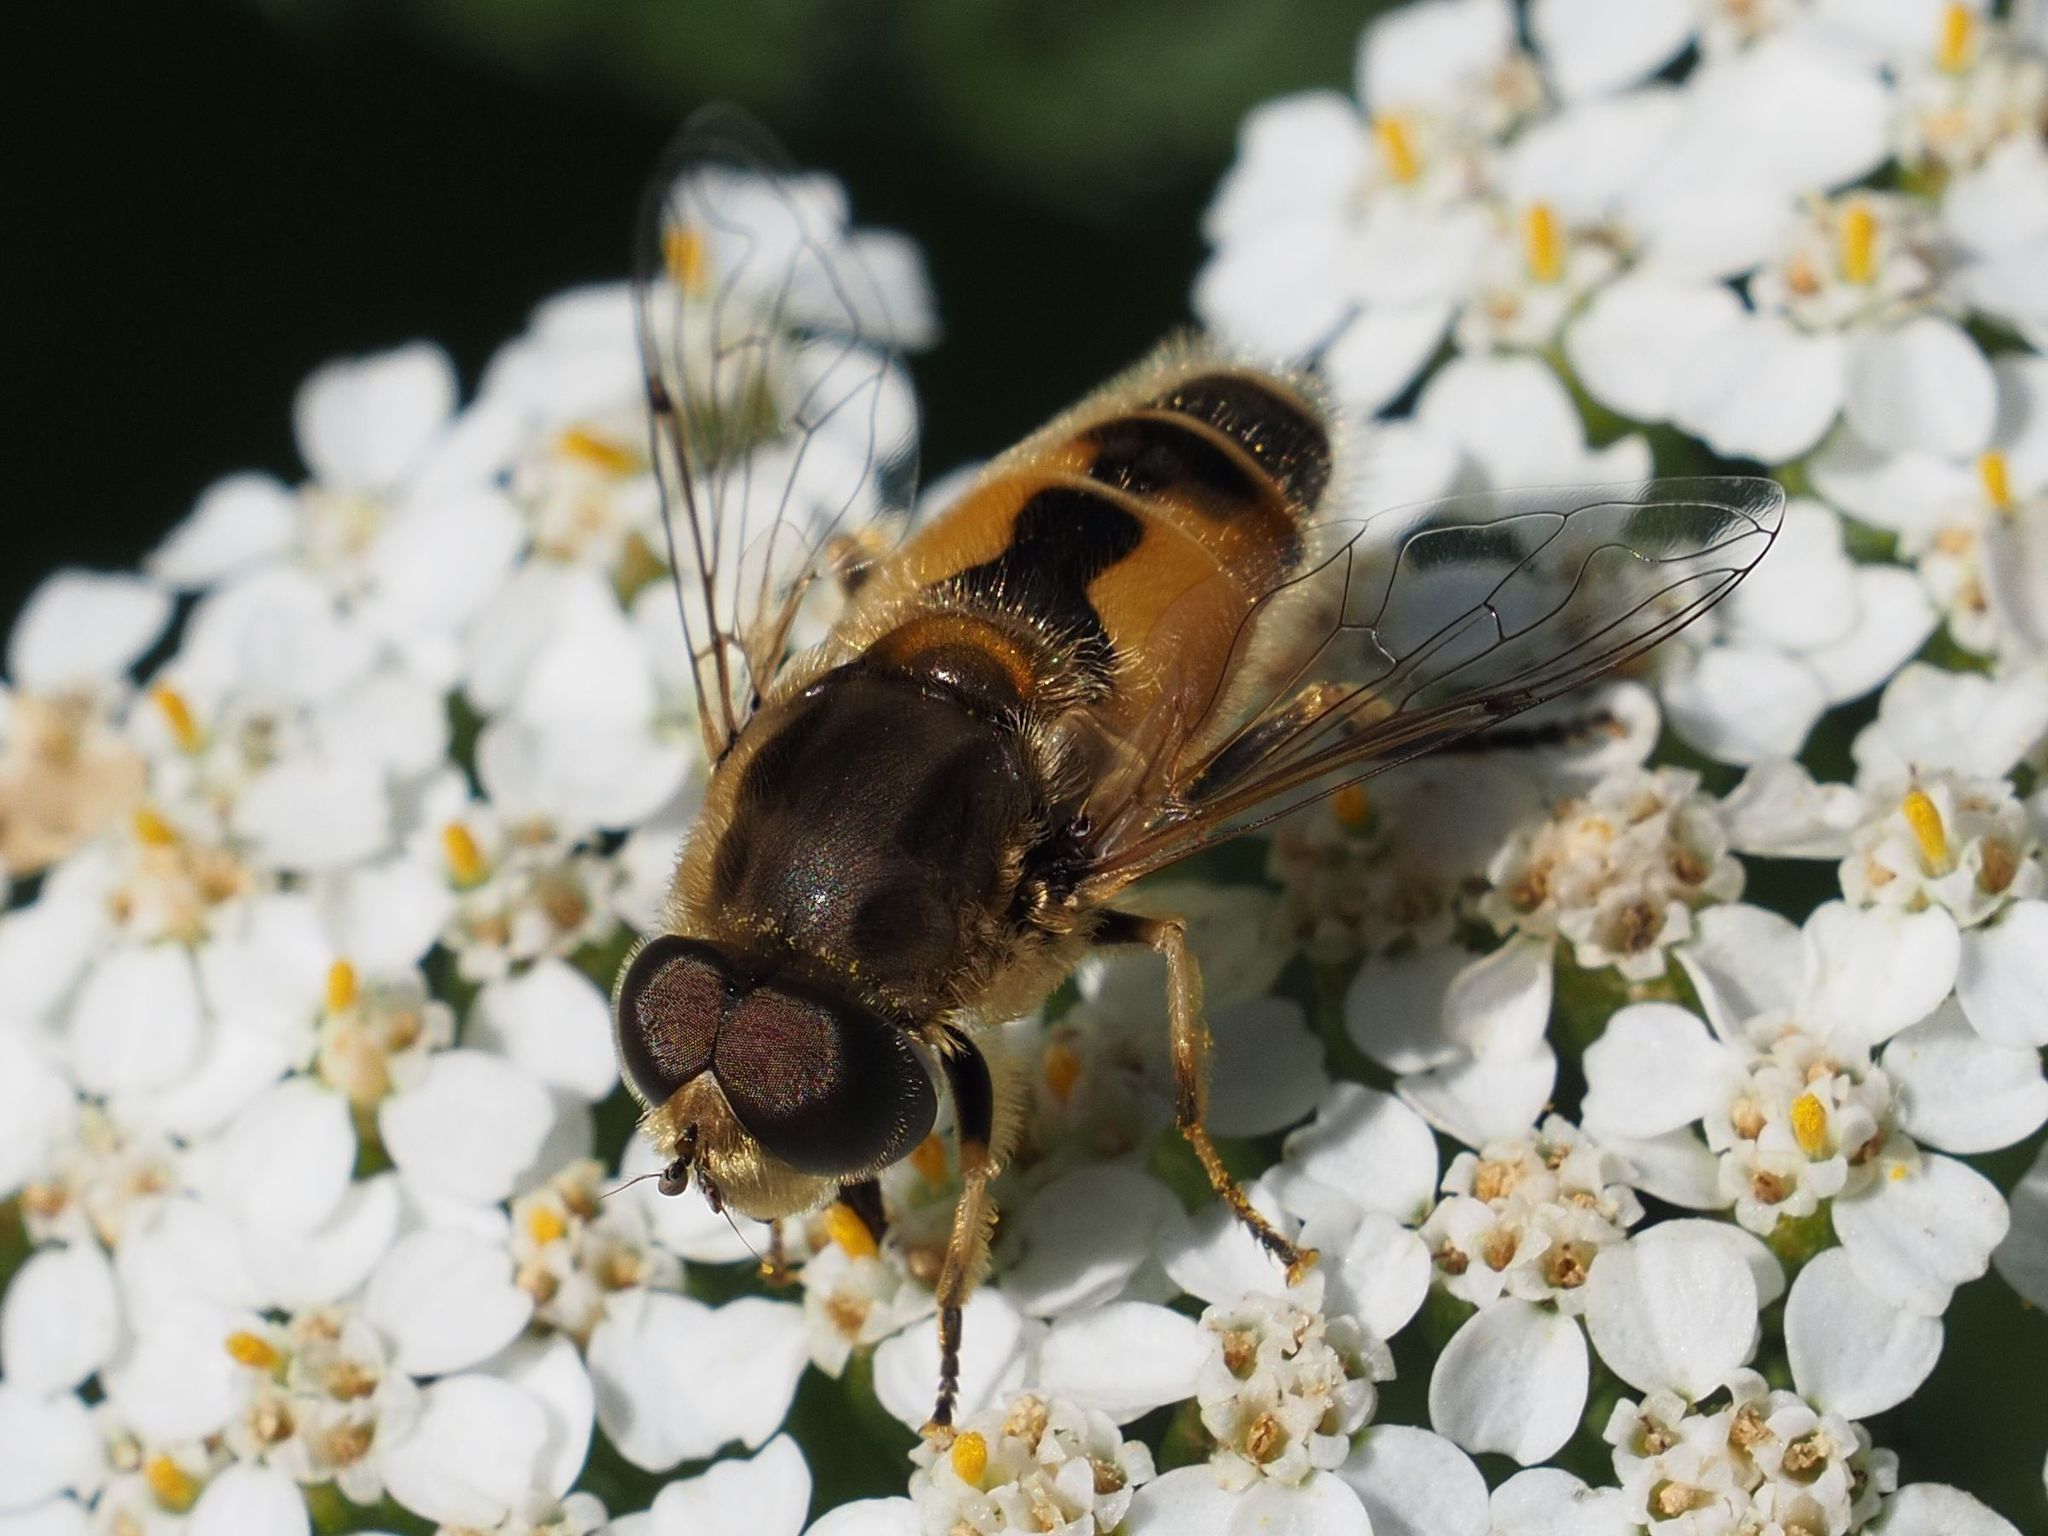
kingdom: Animalia
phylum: Arthropoda
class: Insecta
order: Diptera
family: Syrphidae
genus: Eristalis
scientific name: Eristalis arbustorum
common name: Hover fly
